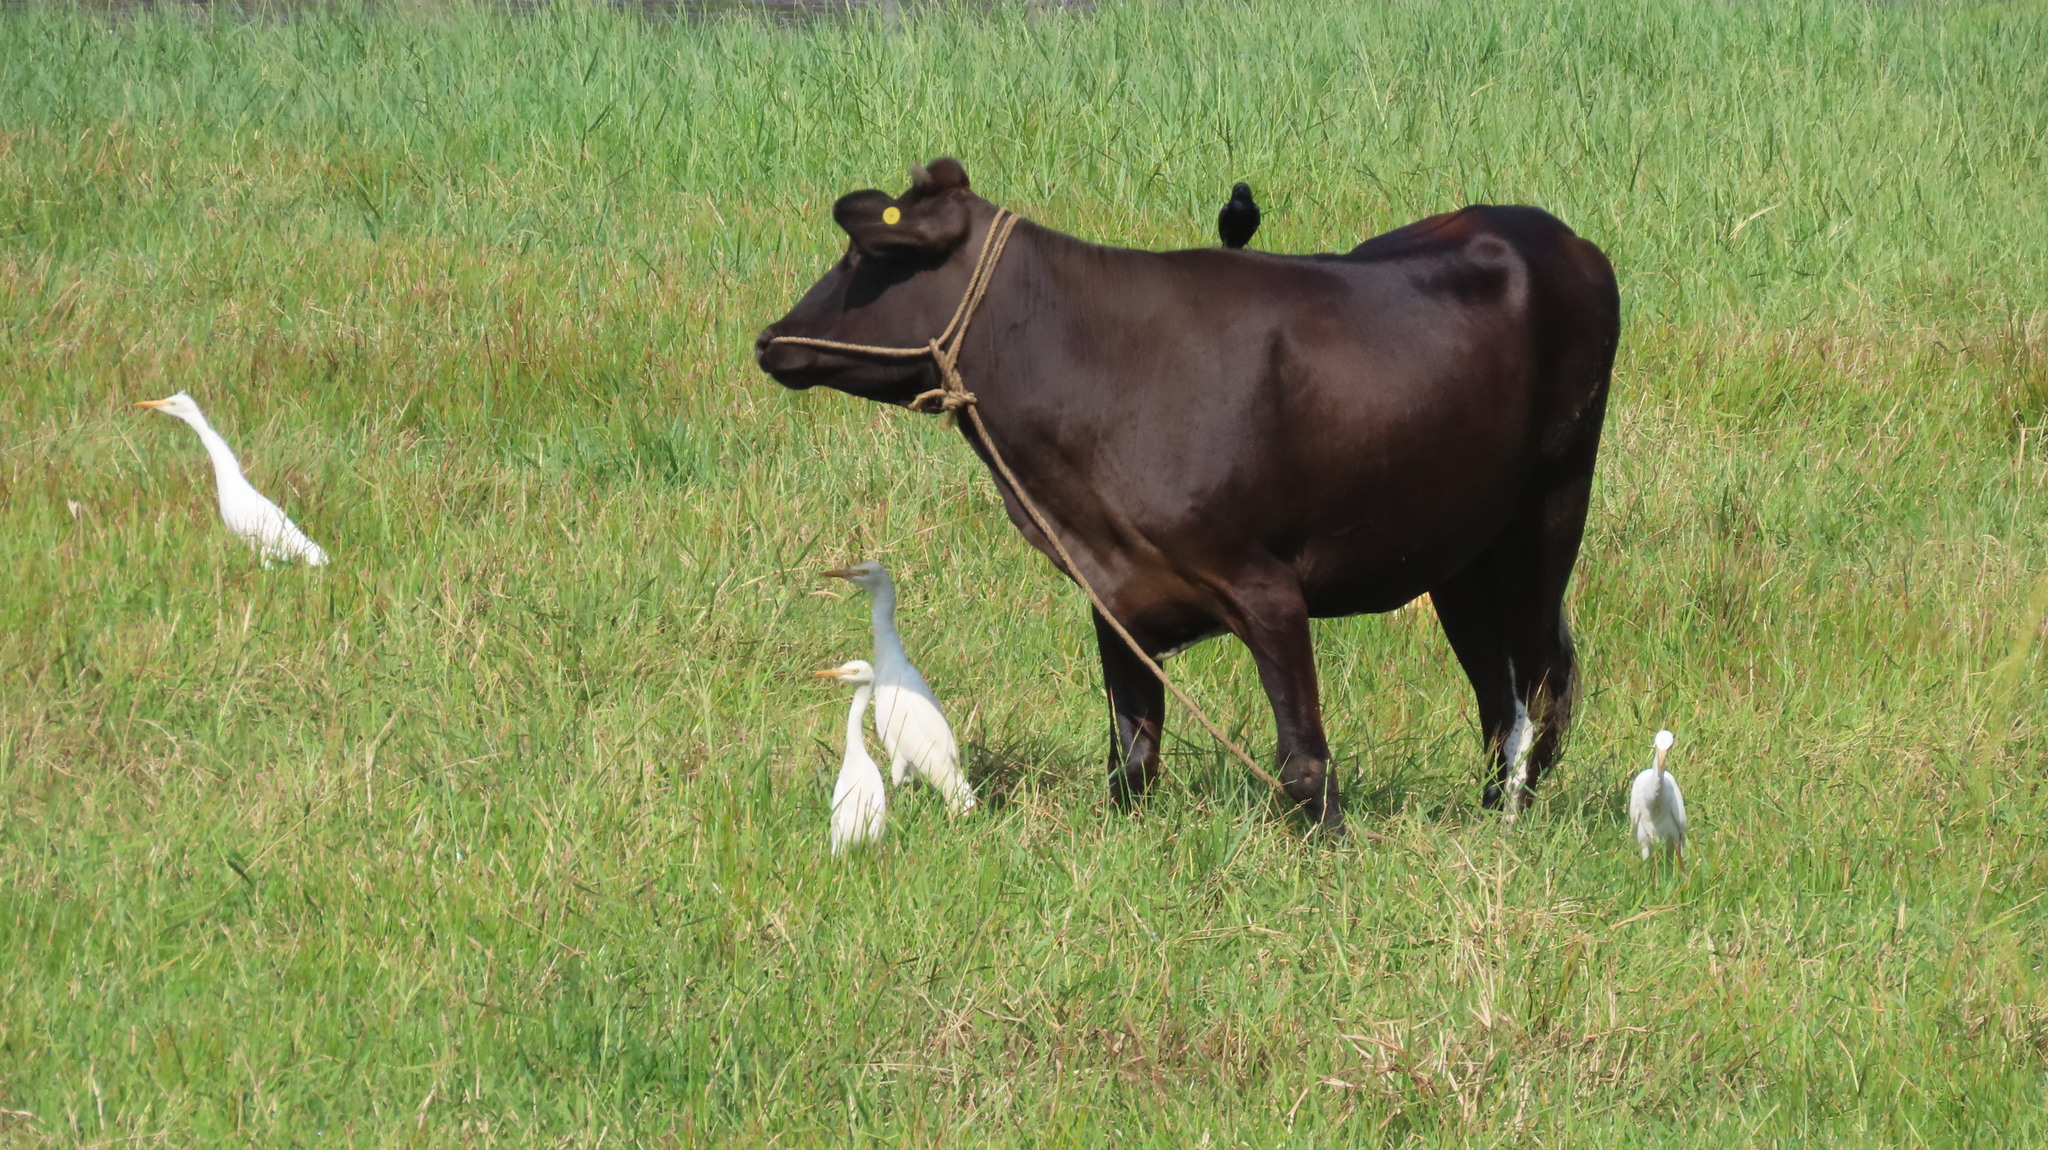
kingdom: Animalia
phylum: Chordata
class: Aves
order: Pelecaniformes
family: Ardeidae
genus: Bubulcus
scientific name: Bubulcus coromandus
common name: Eastern cattle egret
